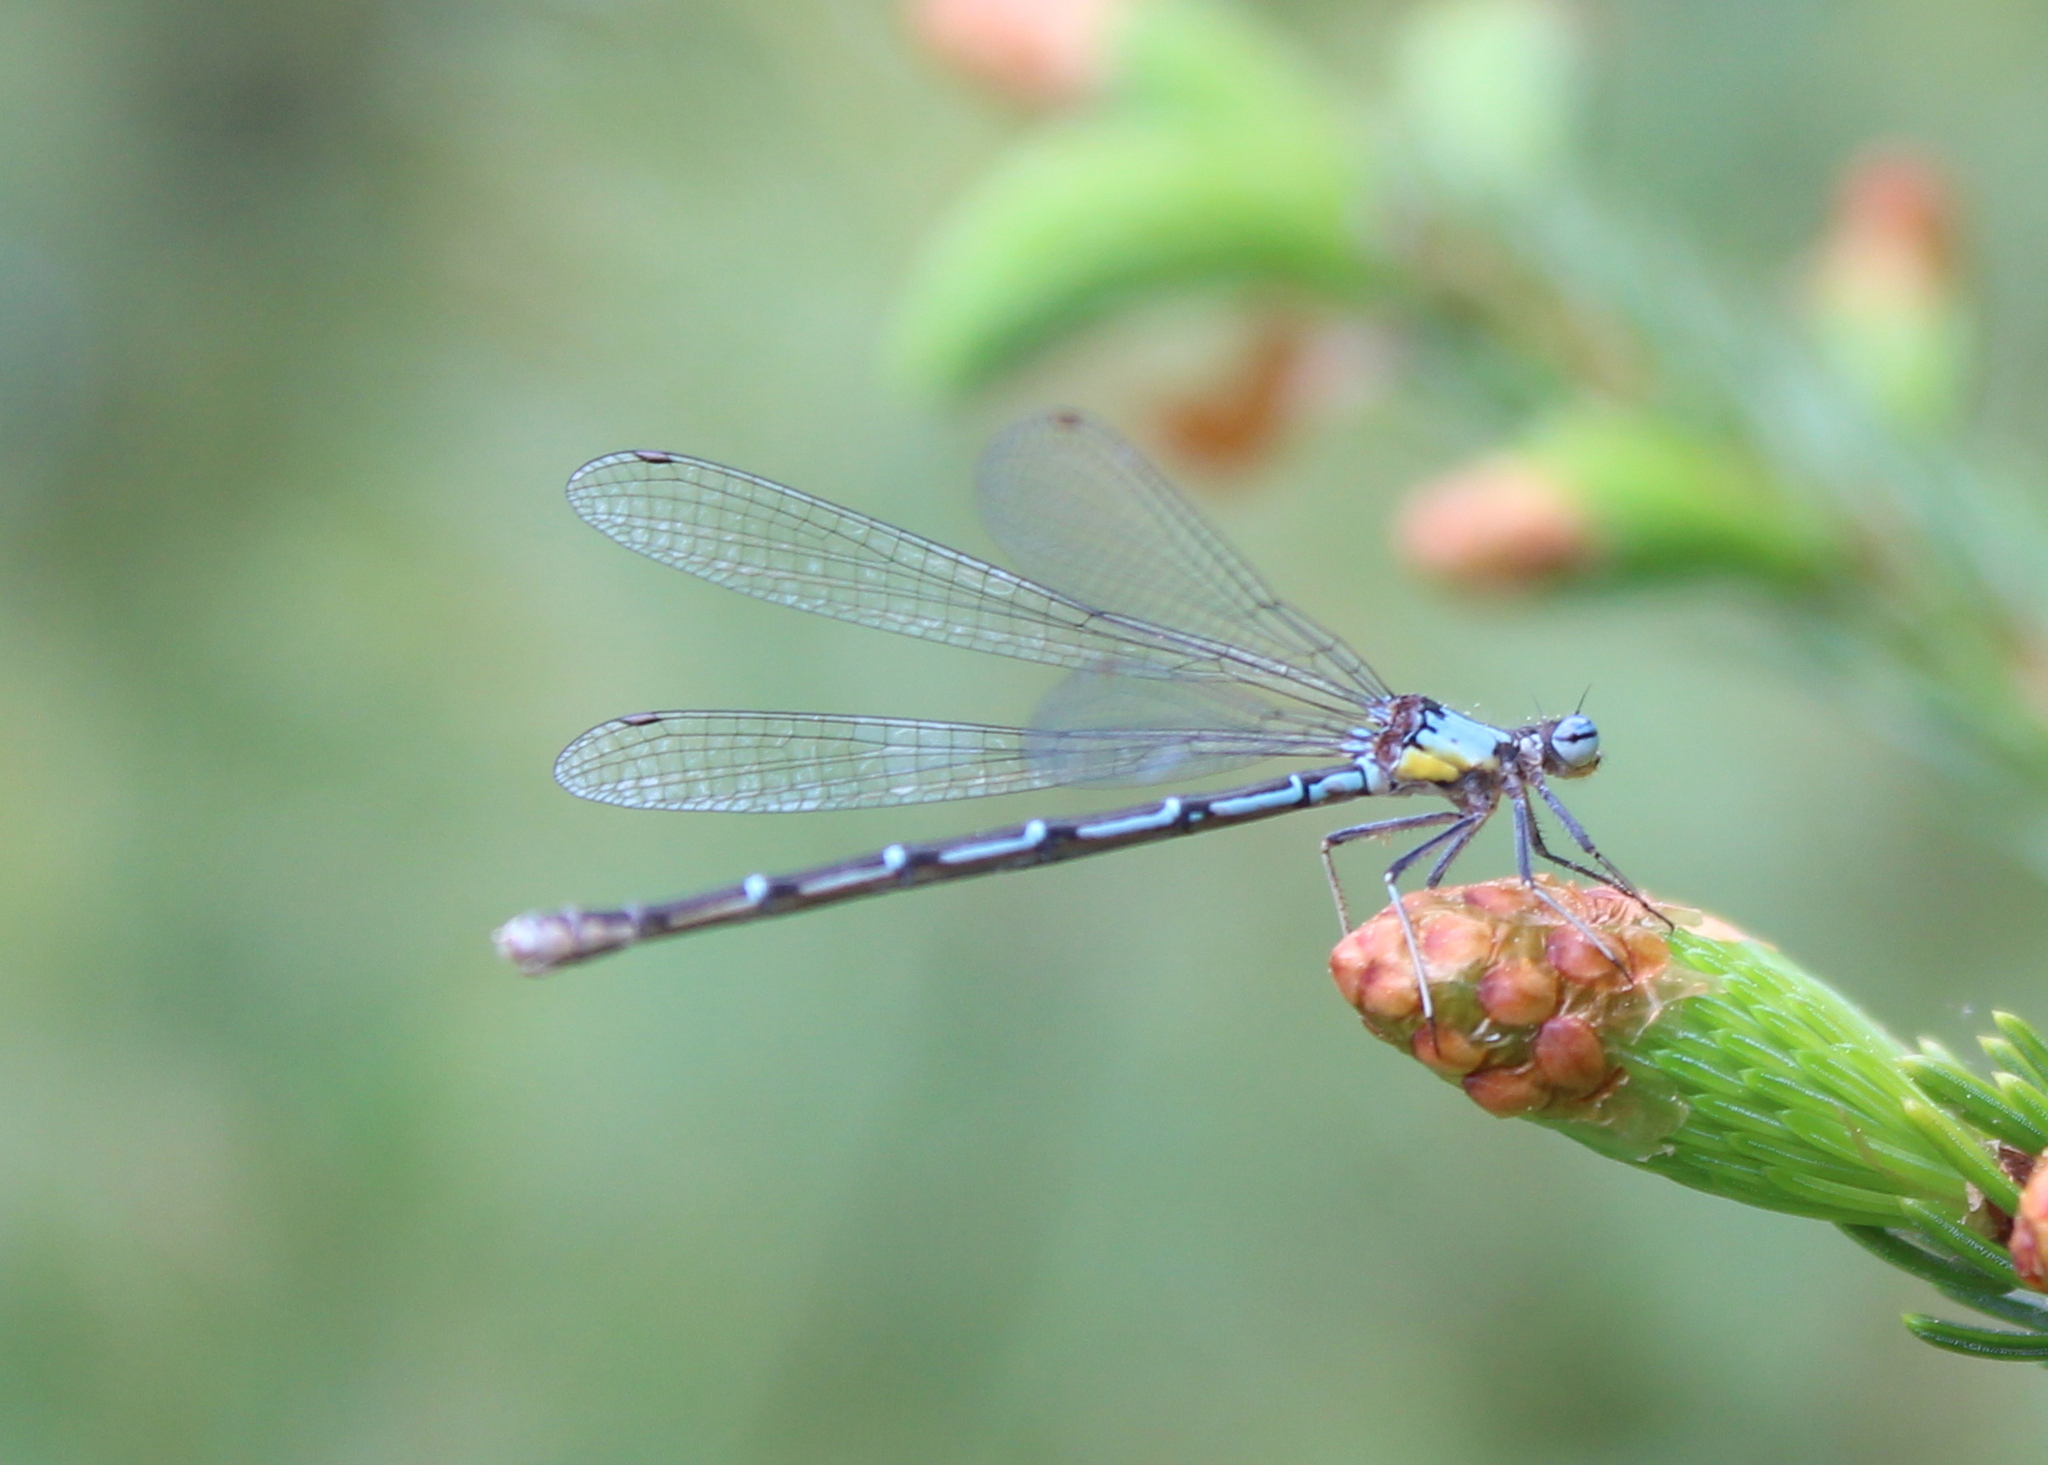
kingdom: Animalia
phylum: Arthropoda
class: Insecta
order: Odonata
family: Coenagrionidae
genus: Chromagrion
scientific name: Chromagrion conditum
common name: Aurora damsel
